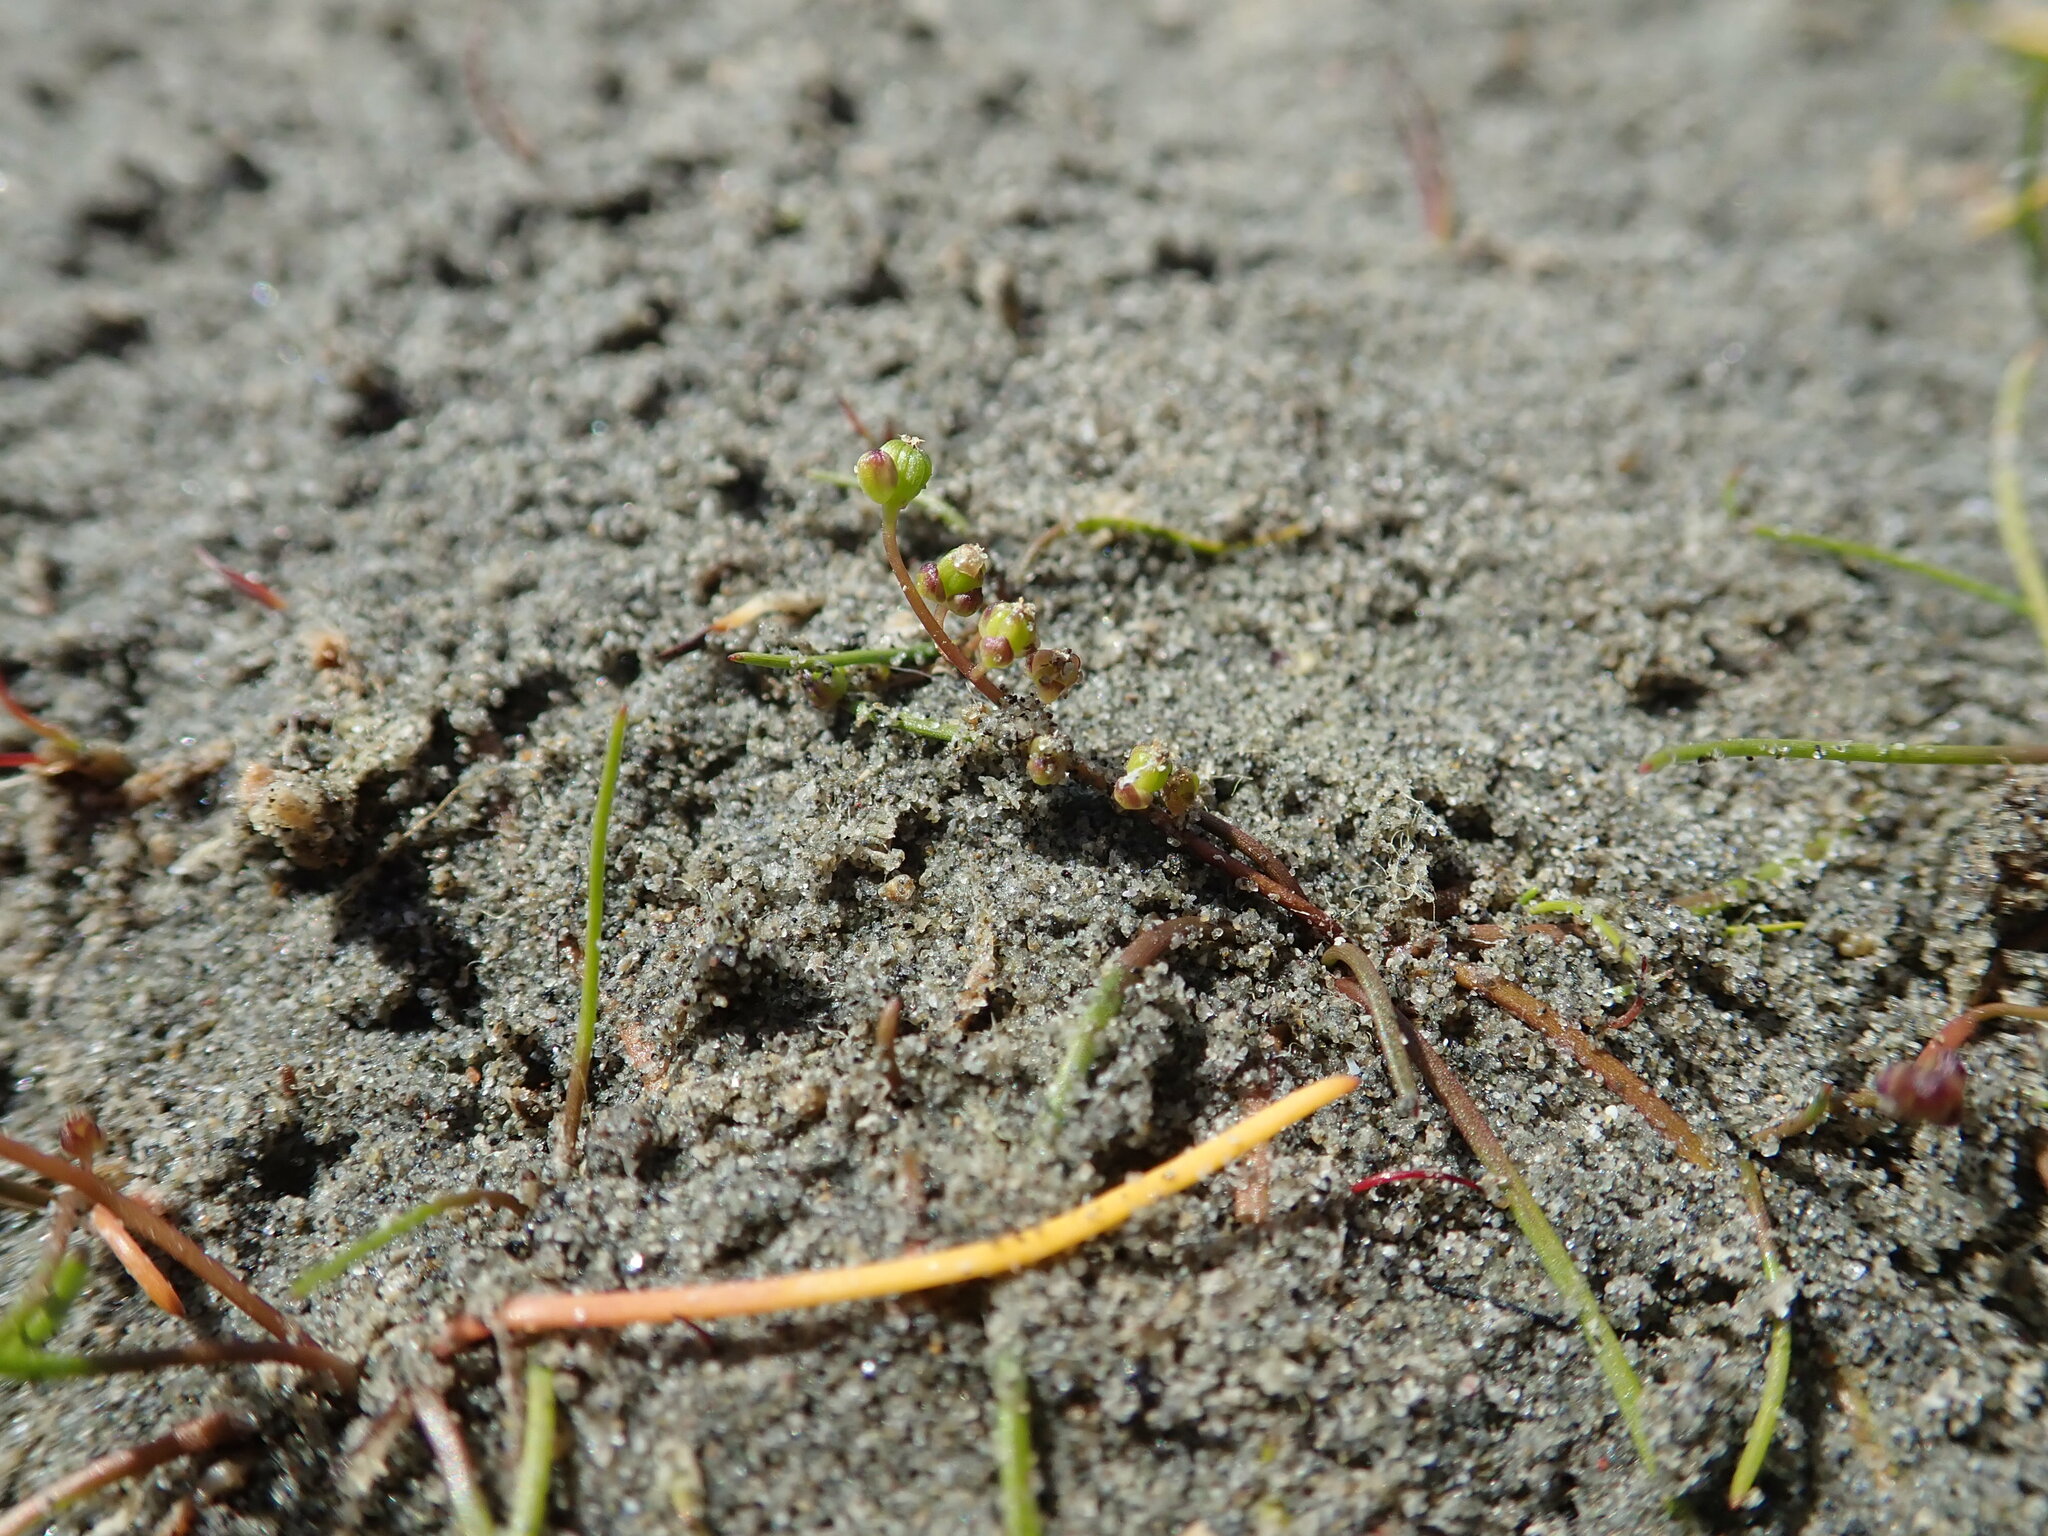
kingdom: Plantae
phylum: Tracheophyta
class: Liliopsida
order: Alismatales
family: Juncaginaceae
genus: Triglochin
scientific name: Triglochin striata
